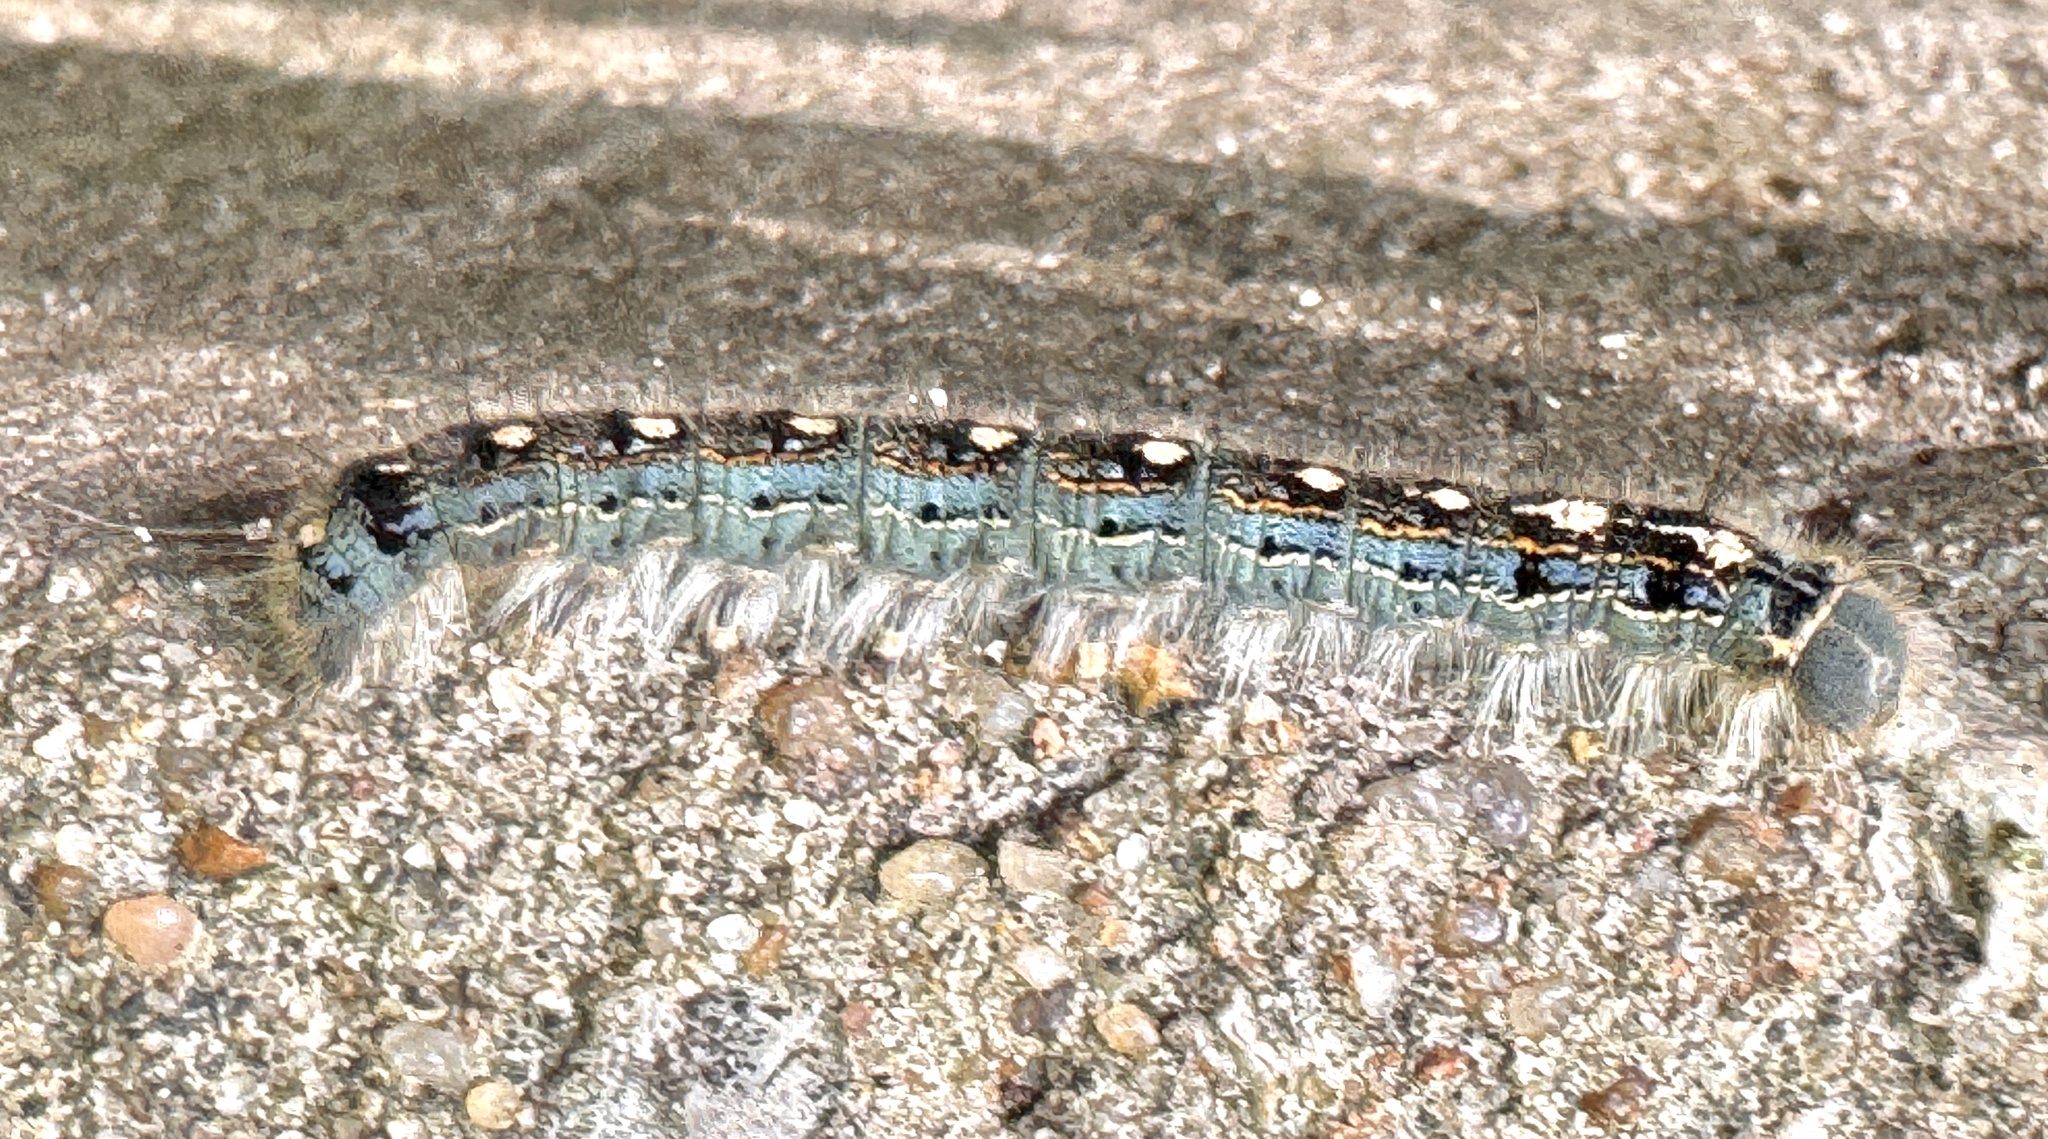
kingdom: Animalia
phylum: Arthropoda
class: Insecta
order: Lepidoptera
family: Lasiocampidae
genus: Malacosoma
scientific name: Malacosoma disstria
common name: Forest tent caterpillar
